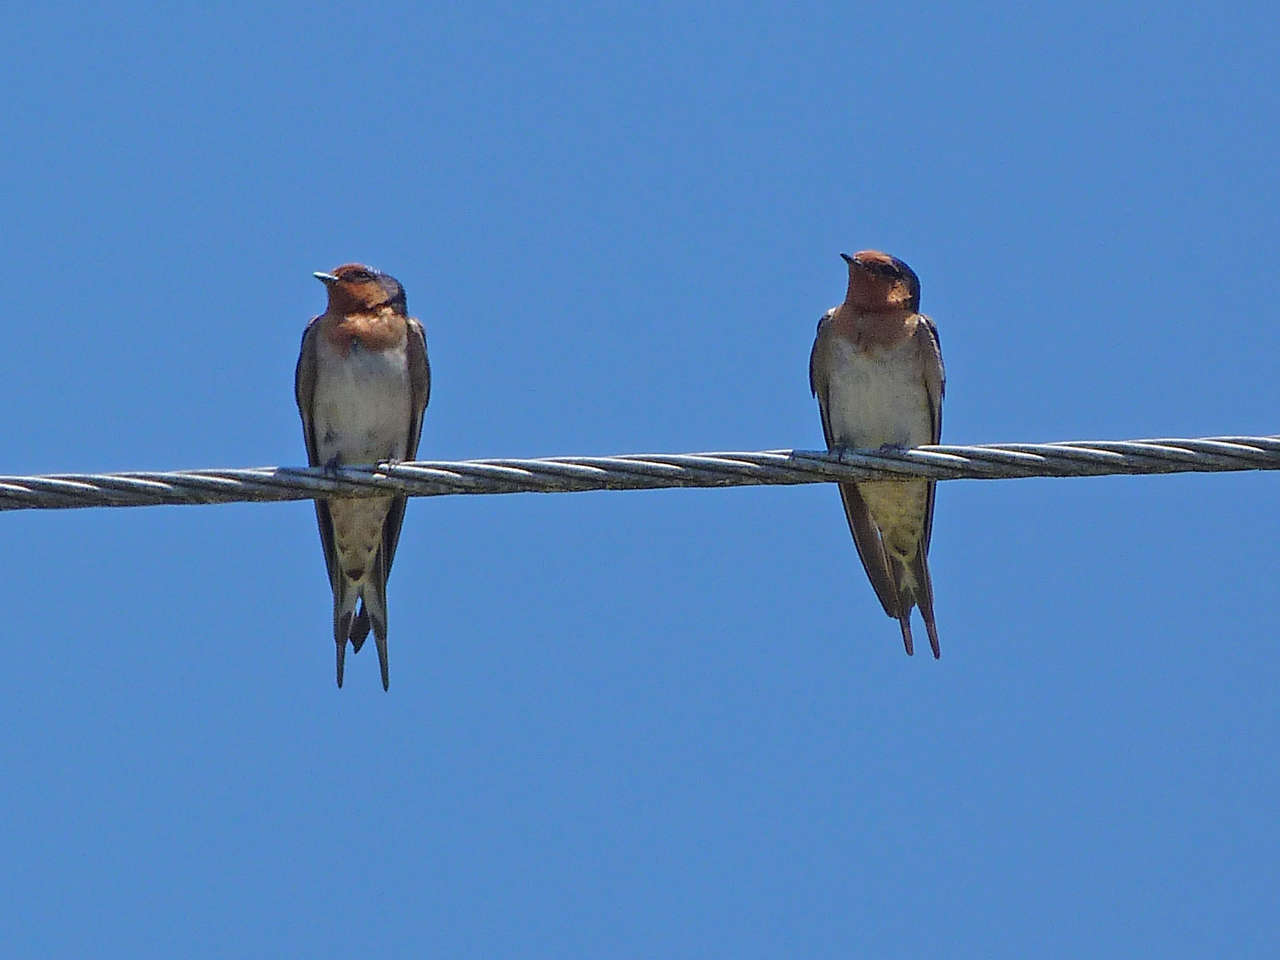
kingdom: Animalia
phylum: Chordata
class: Aves
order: Passeriformes
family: Hirundinidae
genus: Hirundo
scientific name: Hirundo neoxena
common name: Welcome swallow
